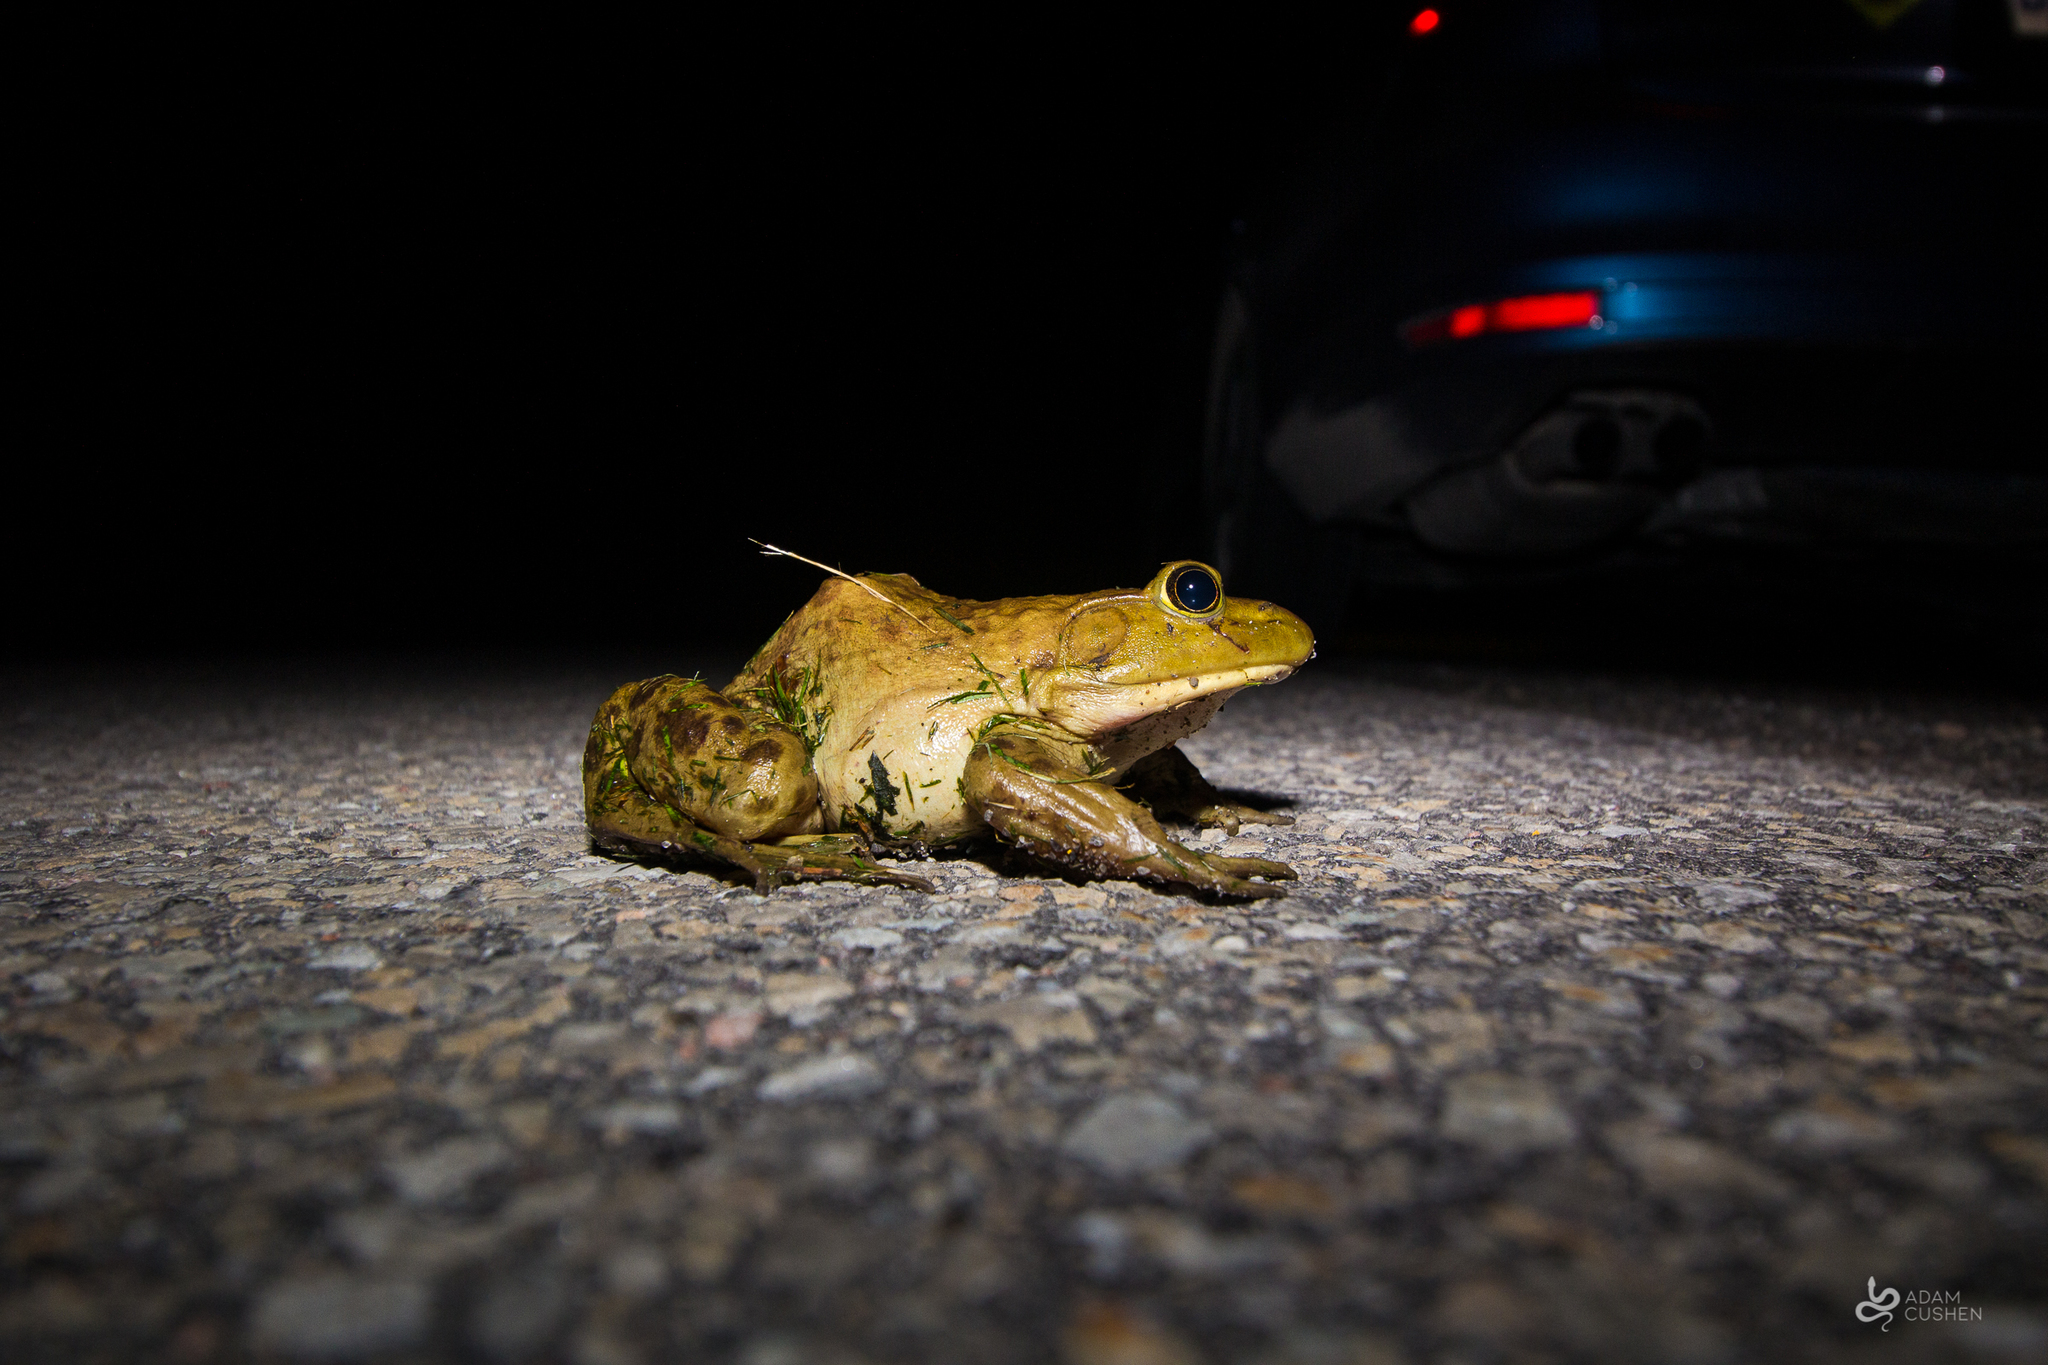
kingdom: Animalia
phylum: Chordata
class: Amphibia
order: Anura
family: Ranidae
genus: Lithobates
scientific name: Lithobates catesbeianus
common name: American bullfrog
